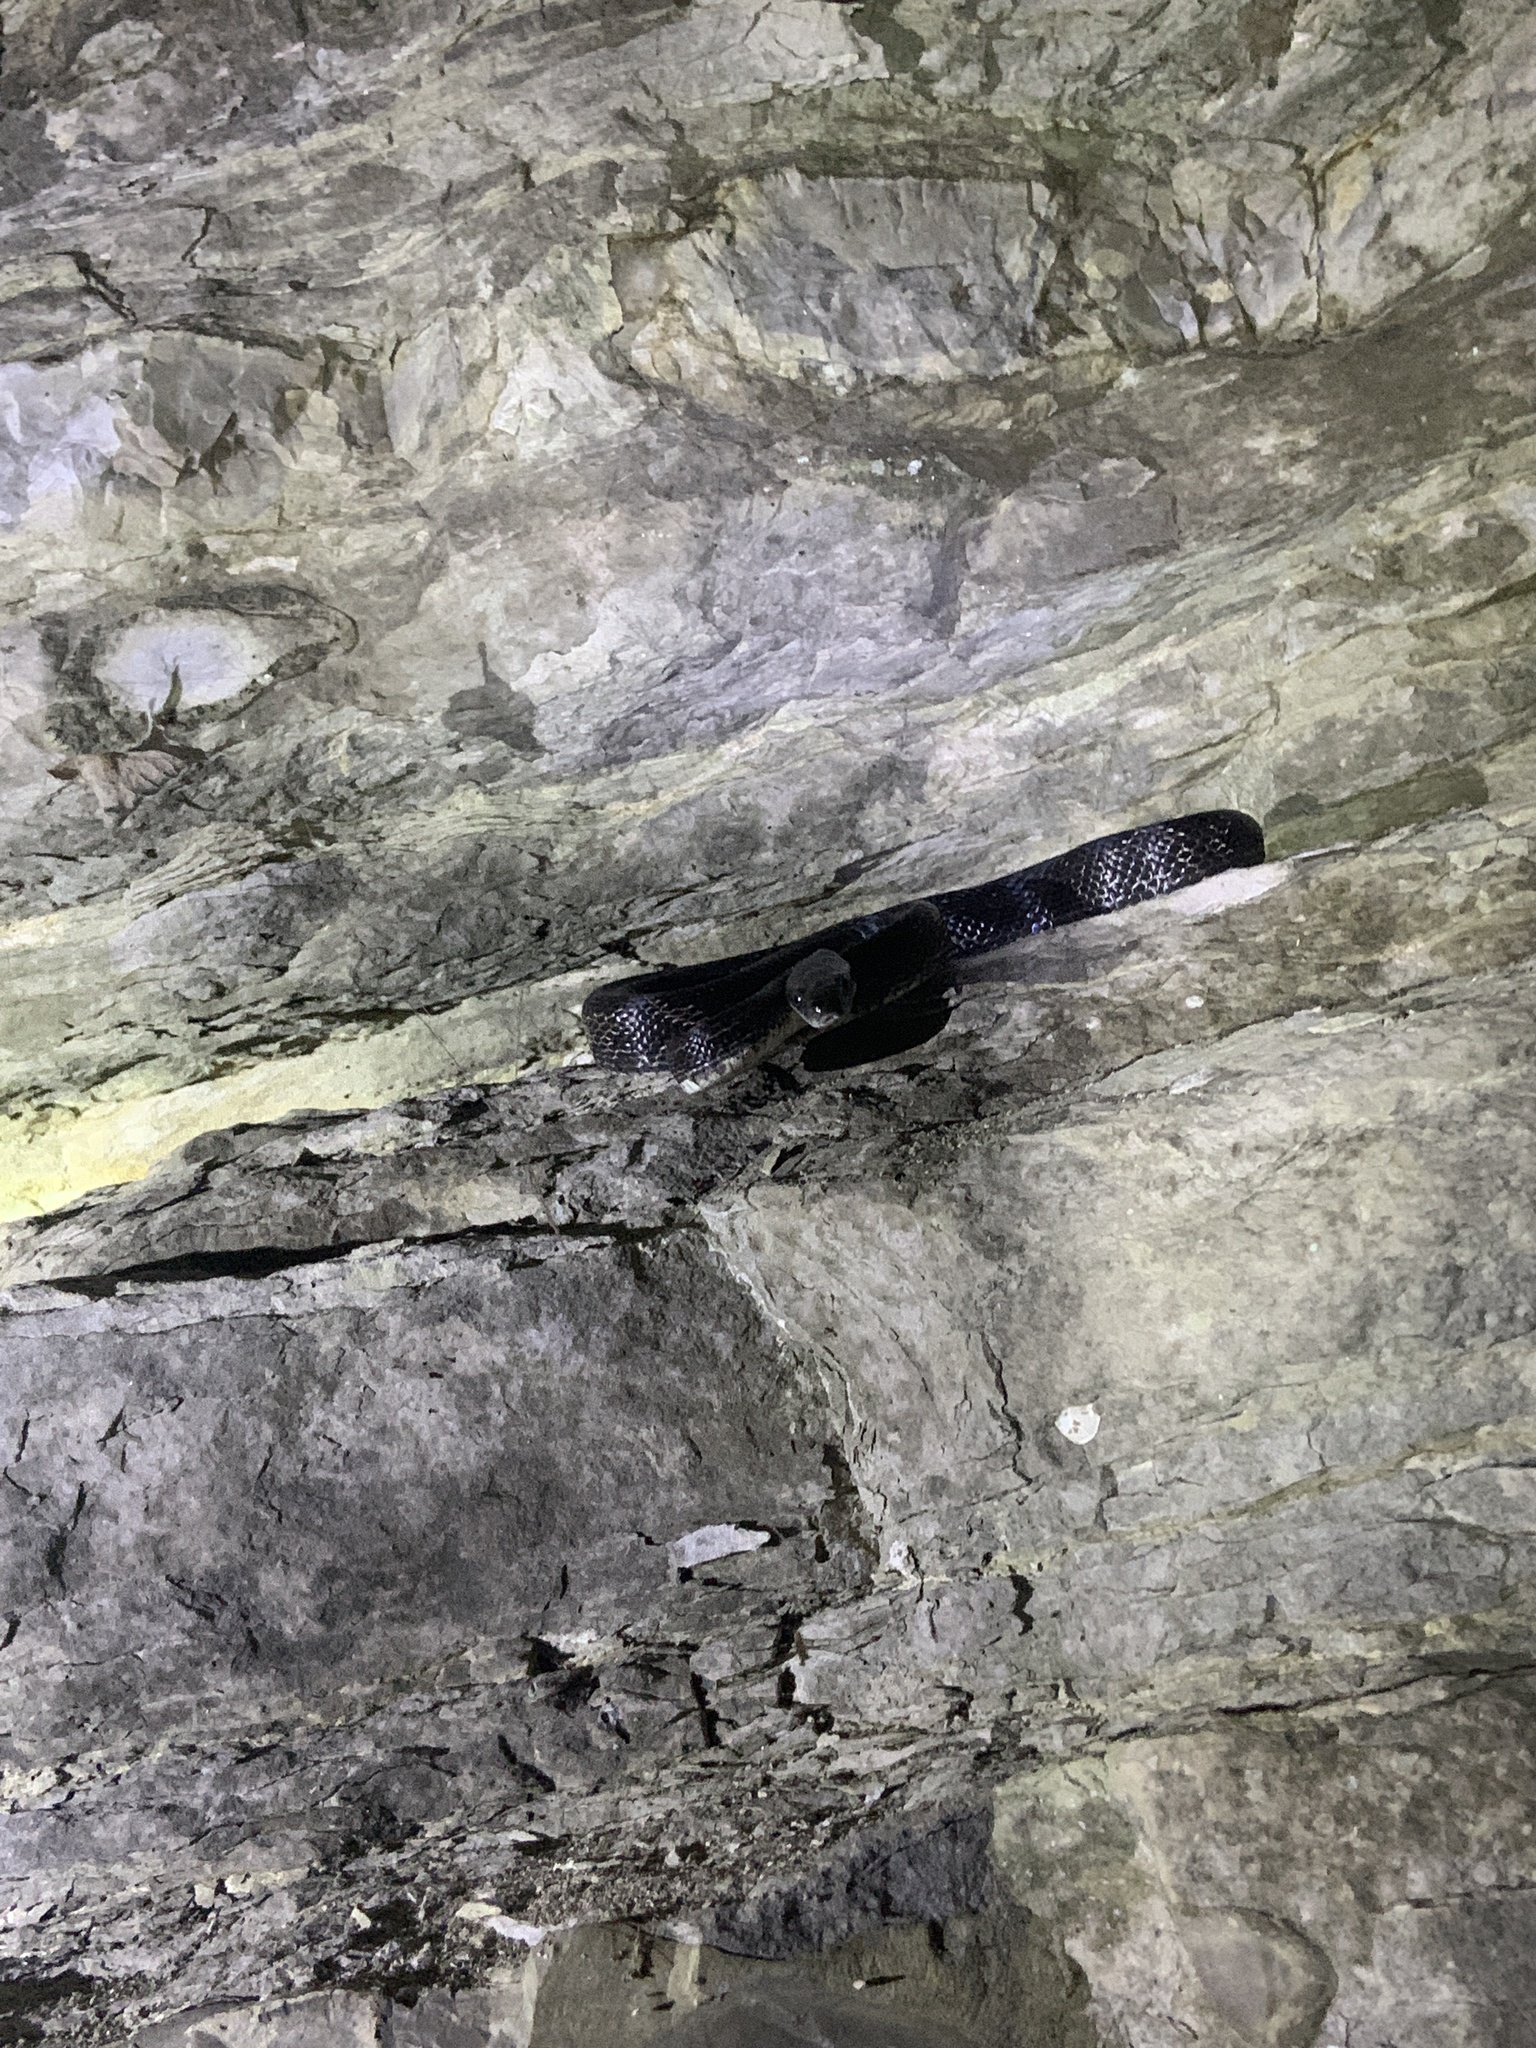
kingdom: Animalia
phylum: Chordata
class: Squamata
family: Colubridae
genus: Pantherophis
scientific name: Pantherophis spiloides
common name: Gray rat snake
